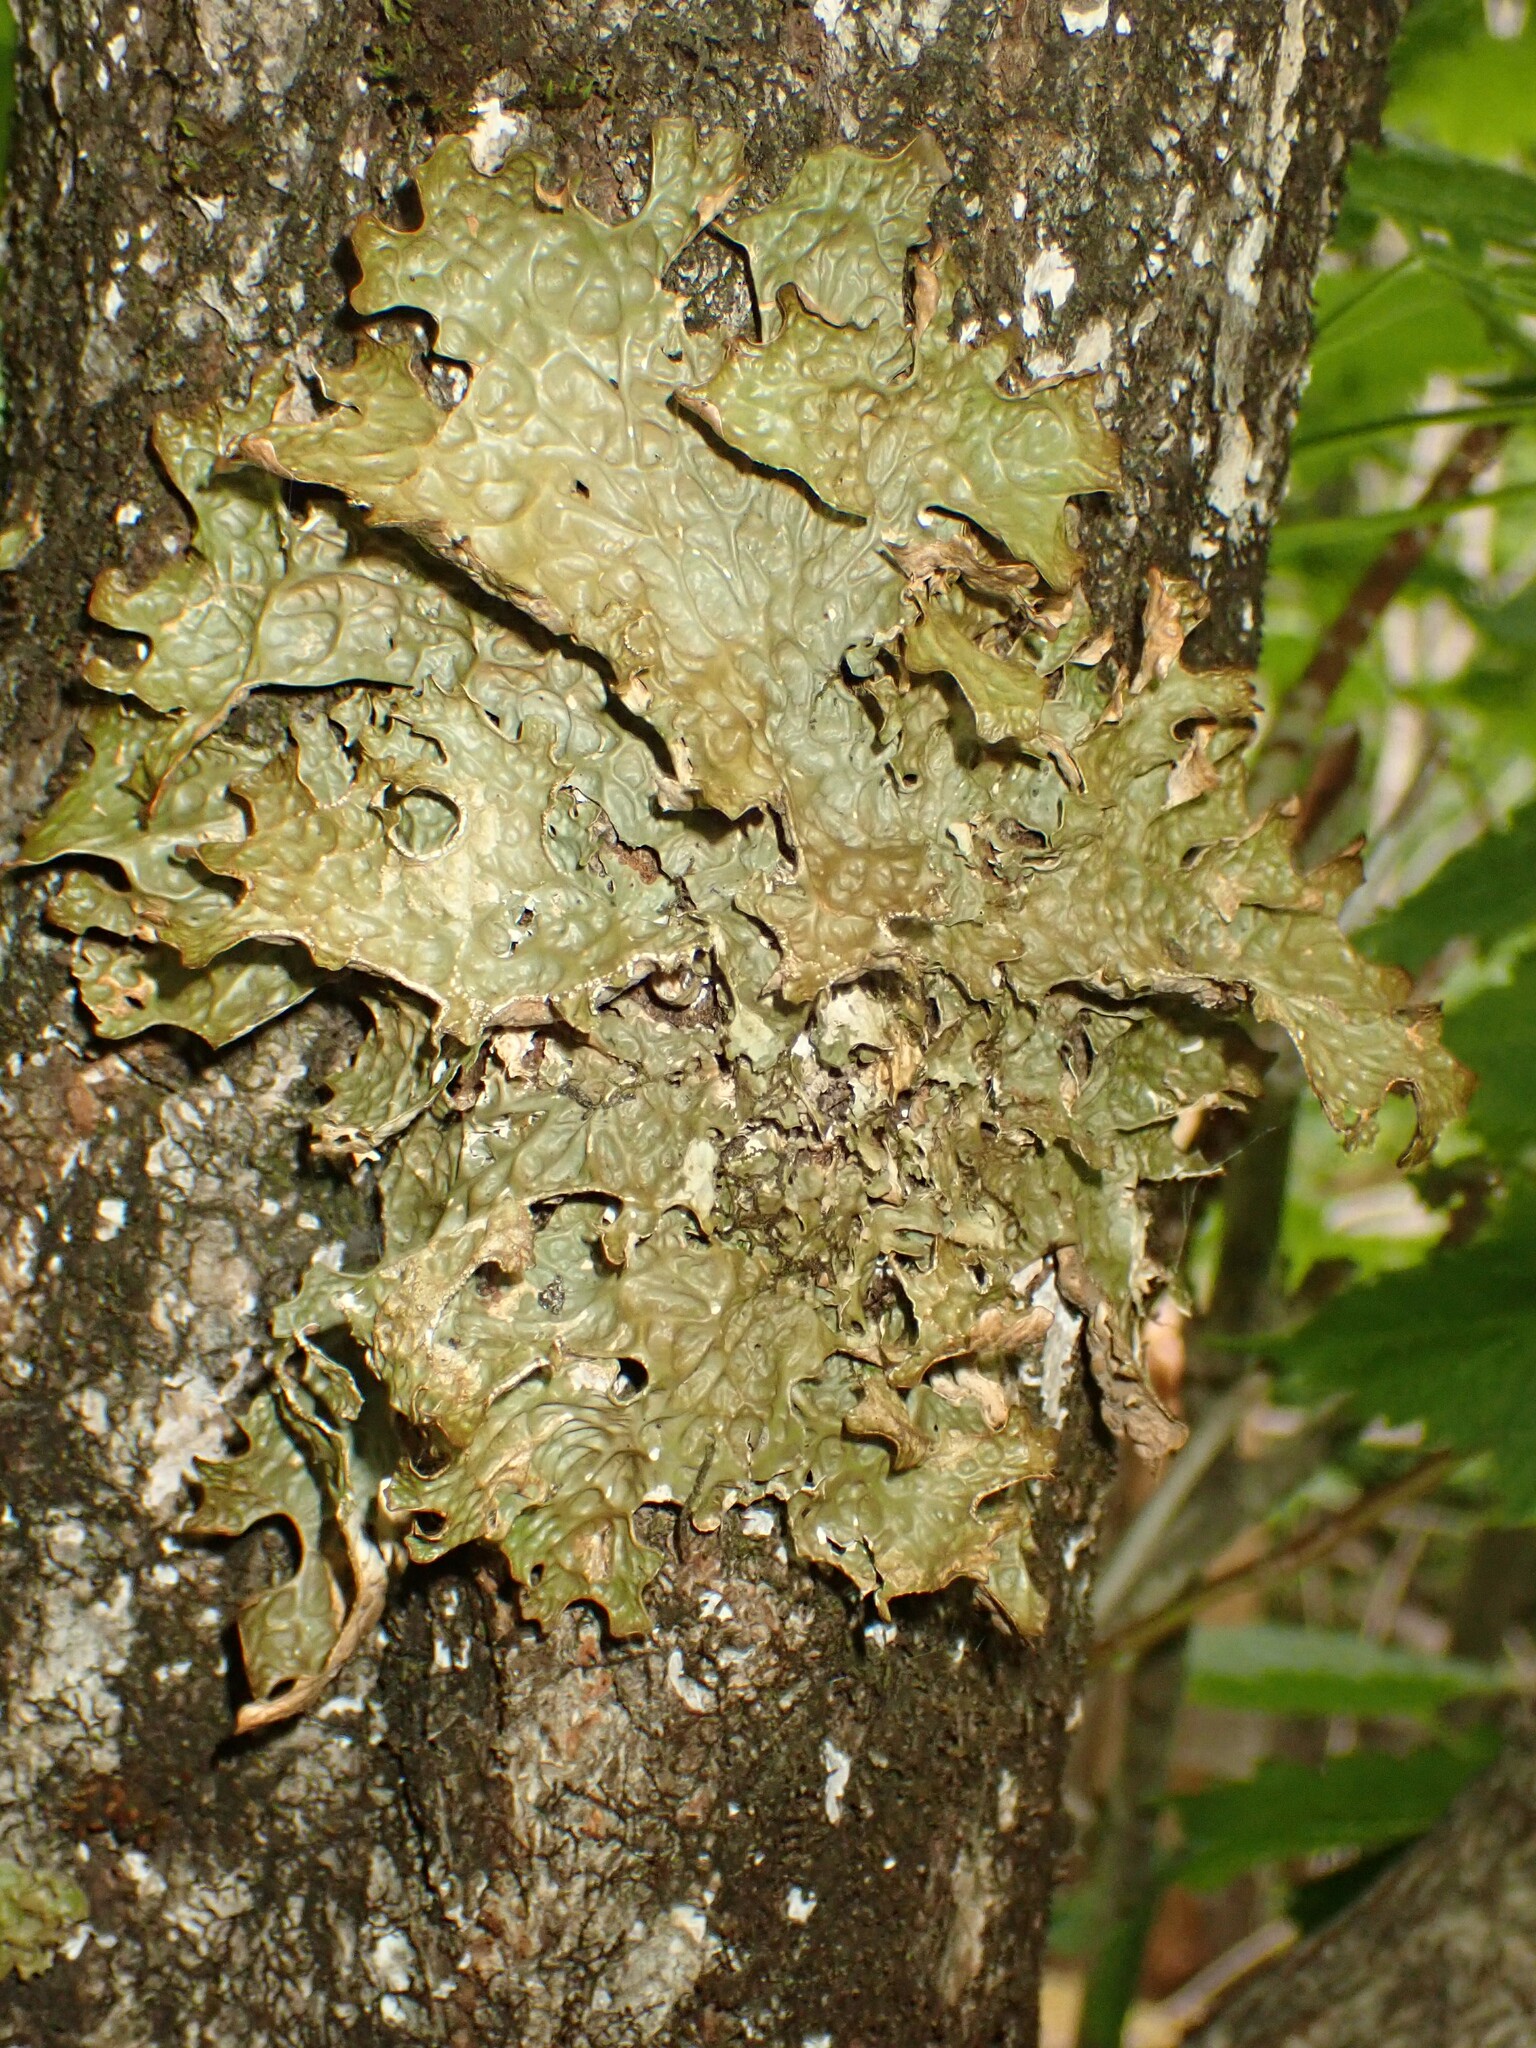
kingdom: Fungi
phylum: Ascomycota
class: Lecanoromycetes
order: Peltigerales
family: Lobariaceae
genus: Lobaria
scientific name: Lobaria pulmonaria
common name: Lungwort
